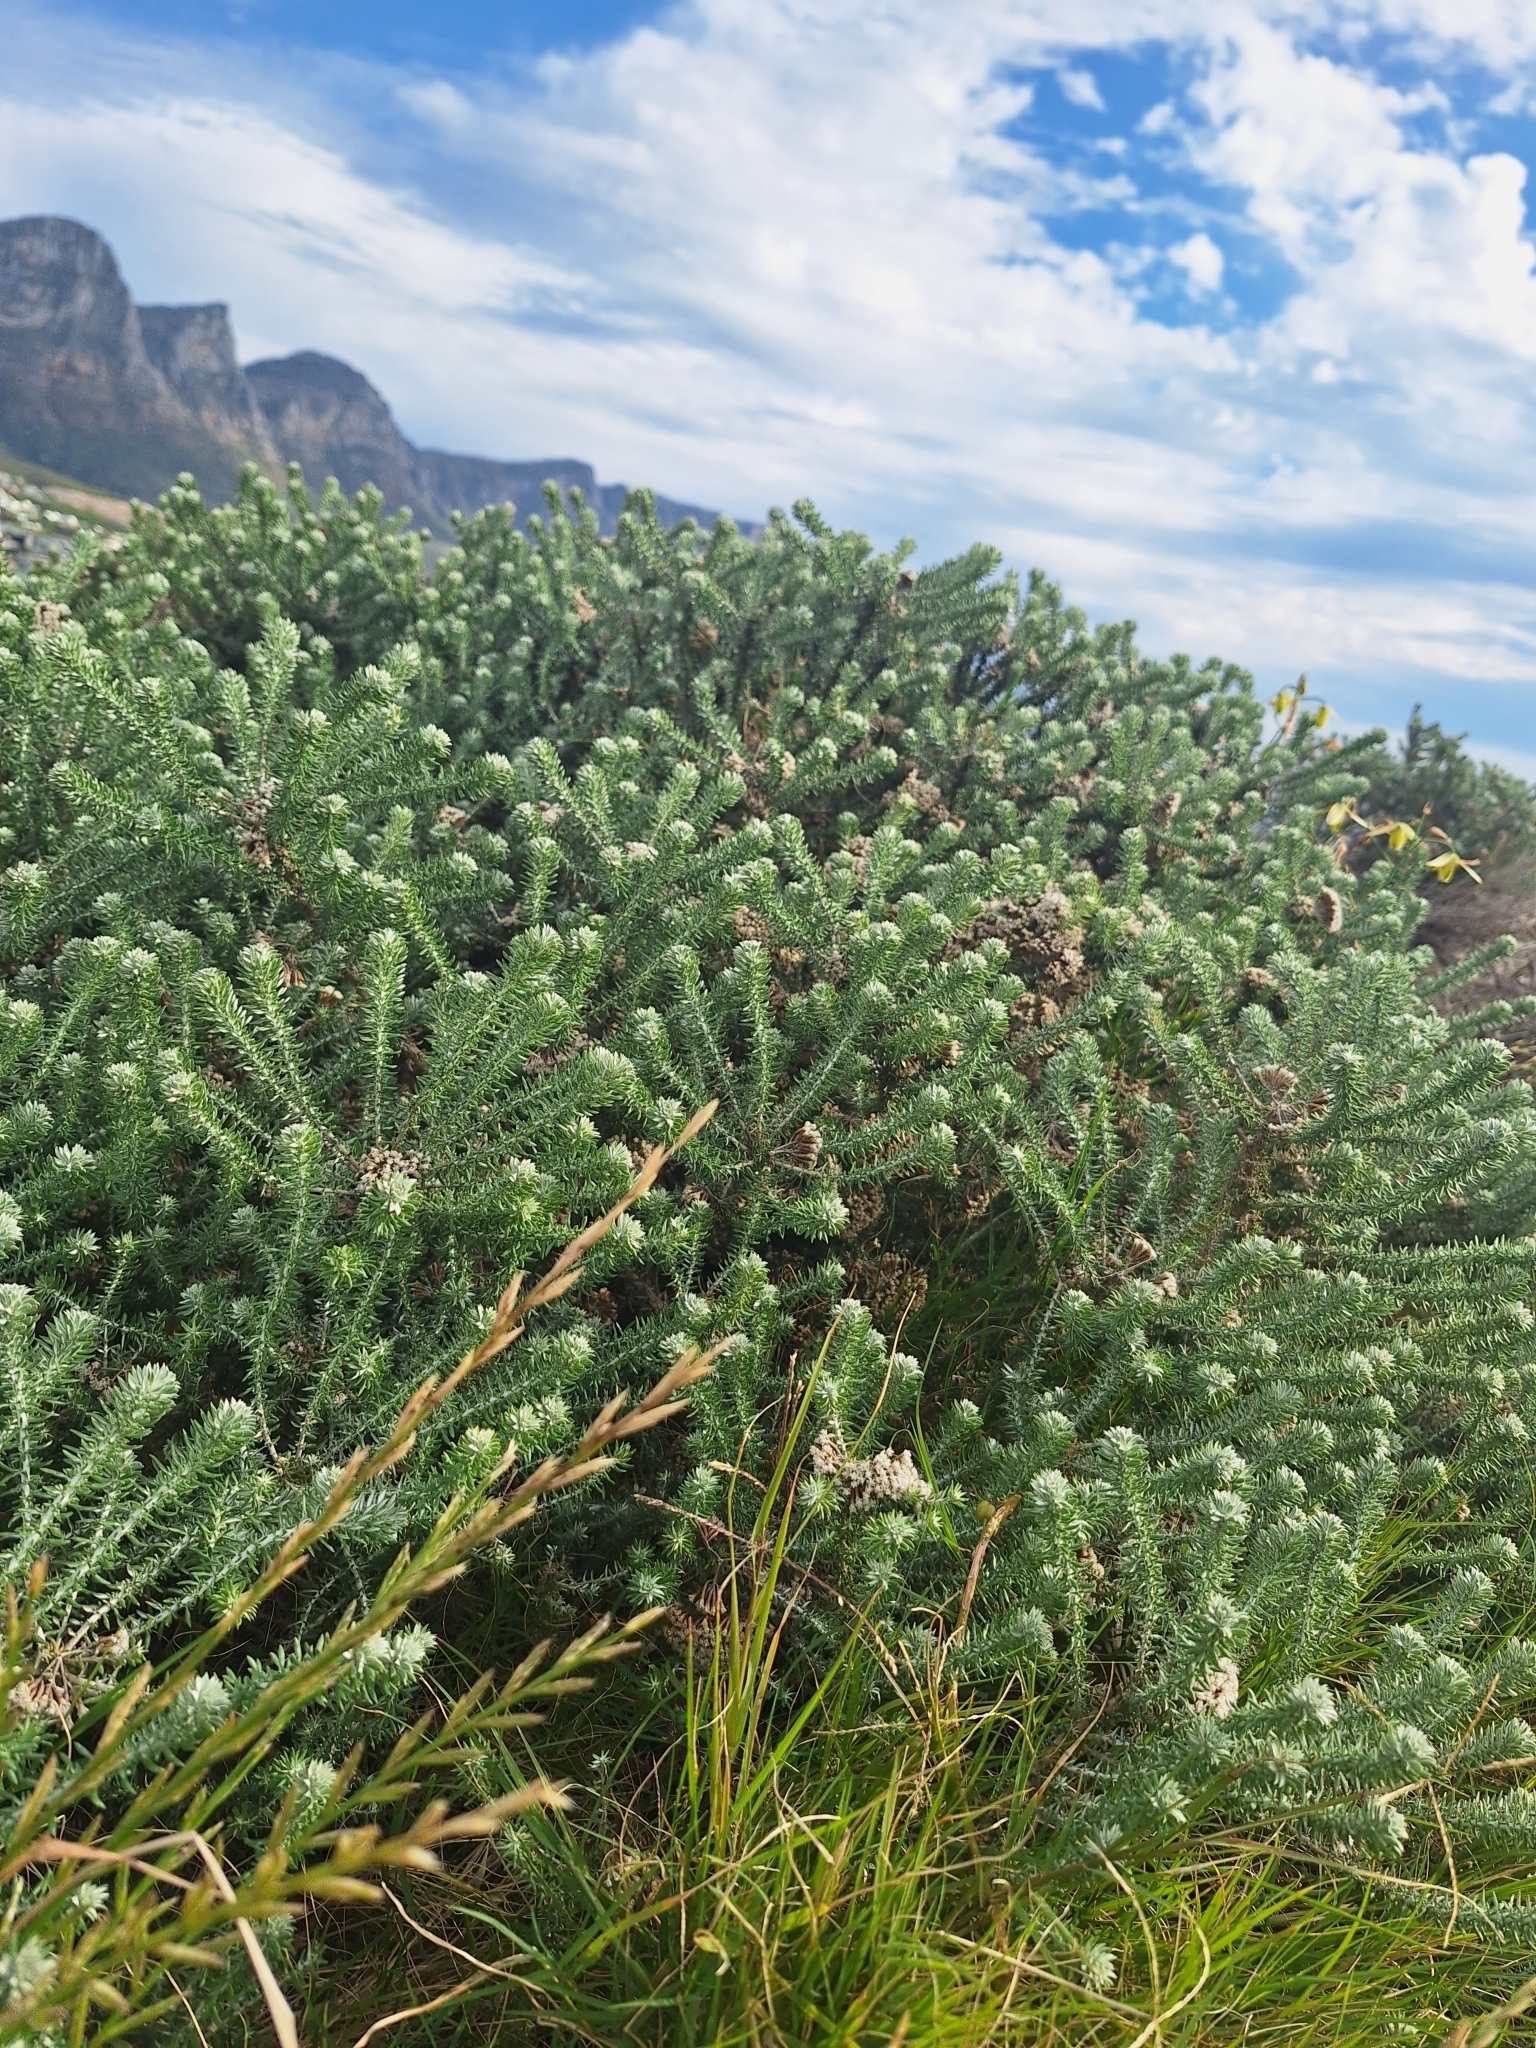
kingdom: Plantae
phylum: Tracheophyta
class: Magnoliopsida
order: Asterales
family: Asteraceae
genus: Metalasia
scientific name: Metalasia densa
